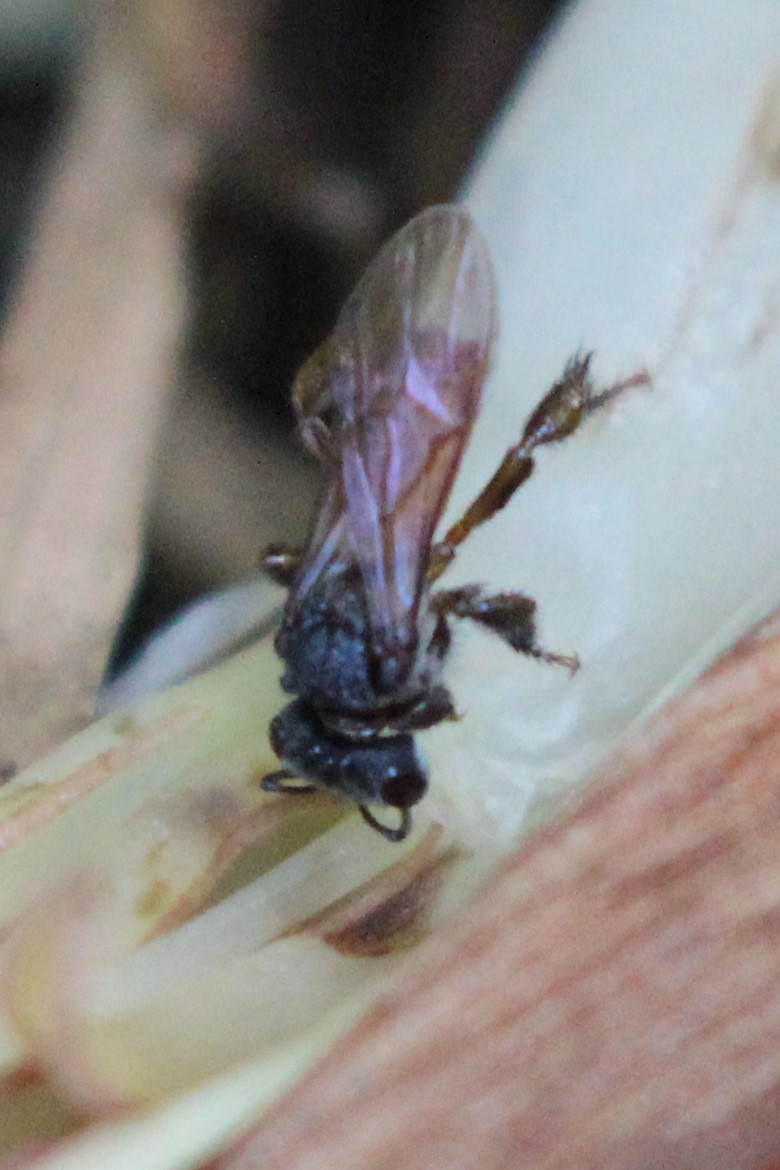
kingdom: Animalia
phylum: Arthropoda
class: Insecta
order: Hymenoptera
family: Apidae
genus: Trigona
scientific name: Trigona fulviventris
